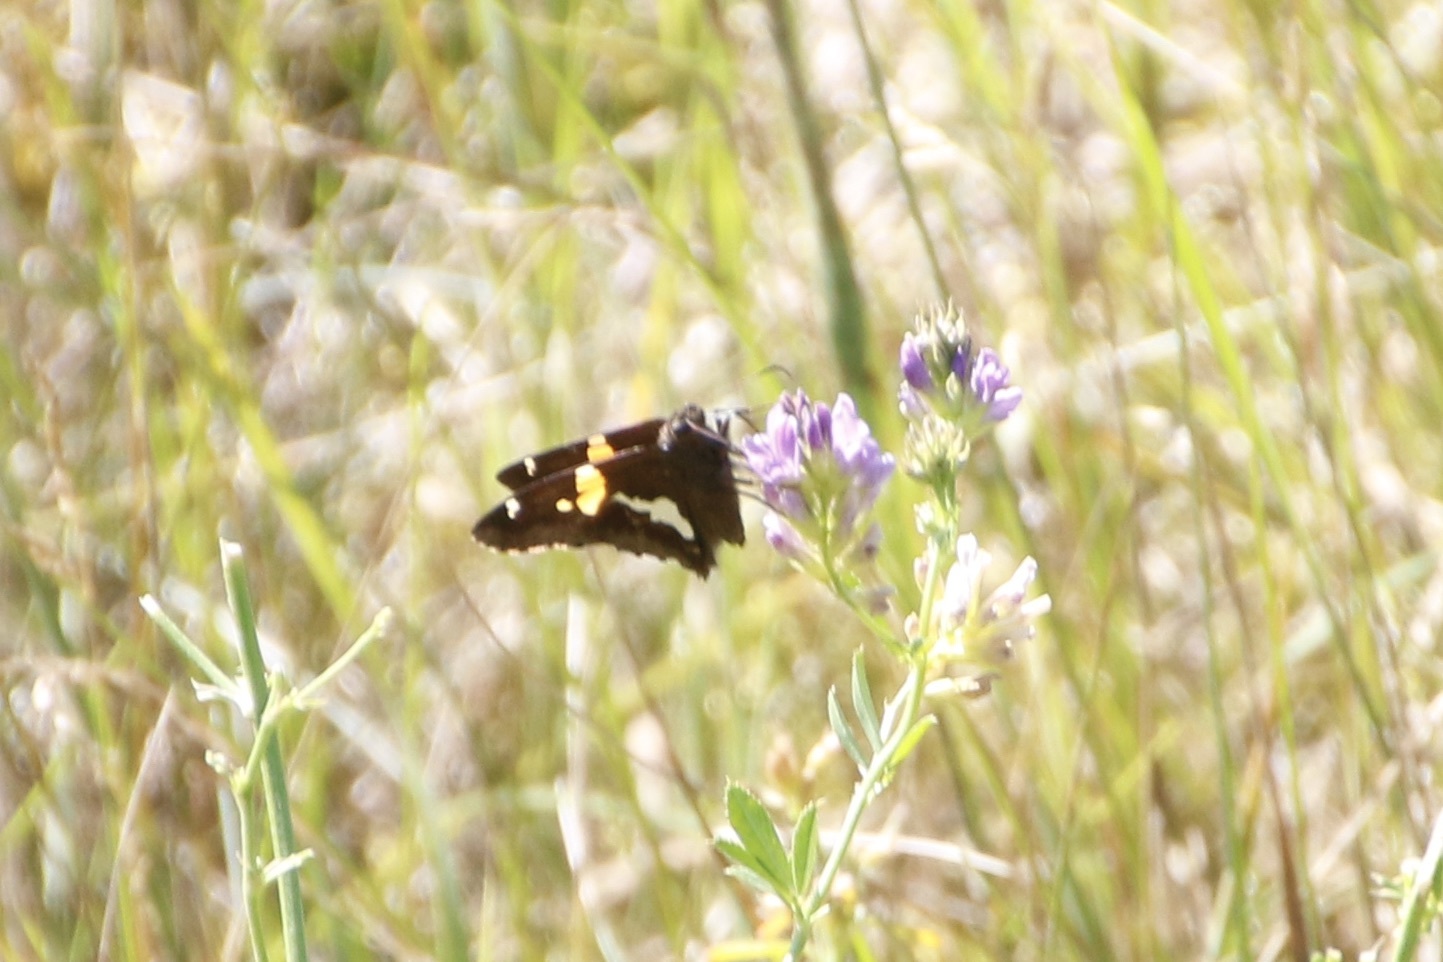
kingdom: Animalia
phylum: Arthropoda
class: Insecta
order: Lepidoptera
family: Hesperiidae
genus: Epargyreus
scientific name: Epargyreus clarus
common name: Silver-spotted skipper
